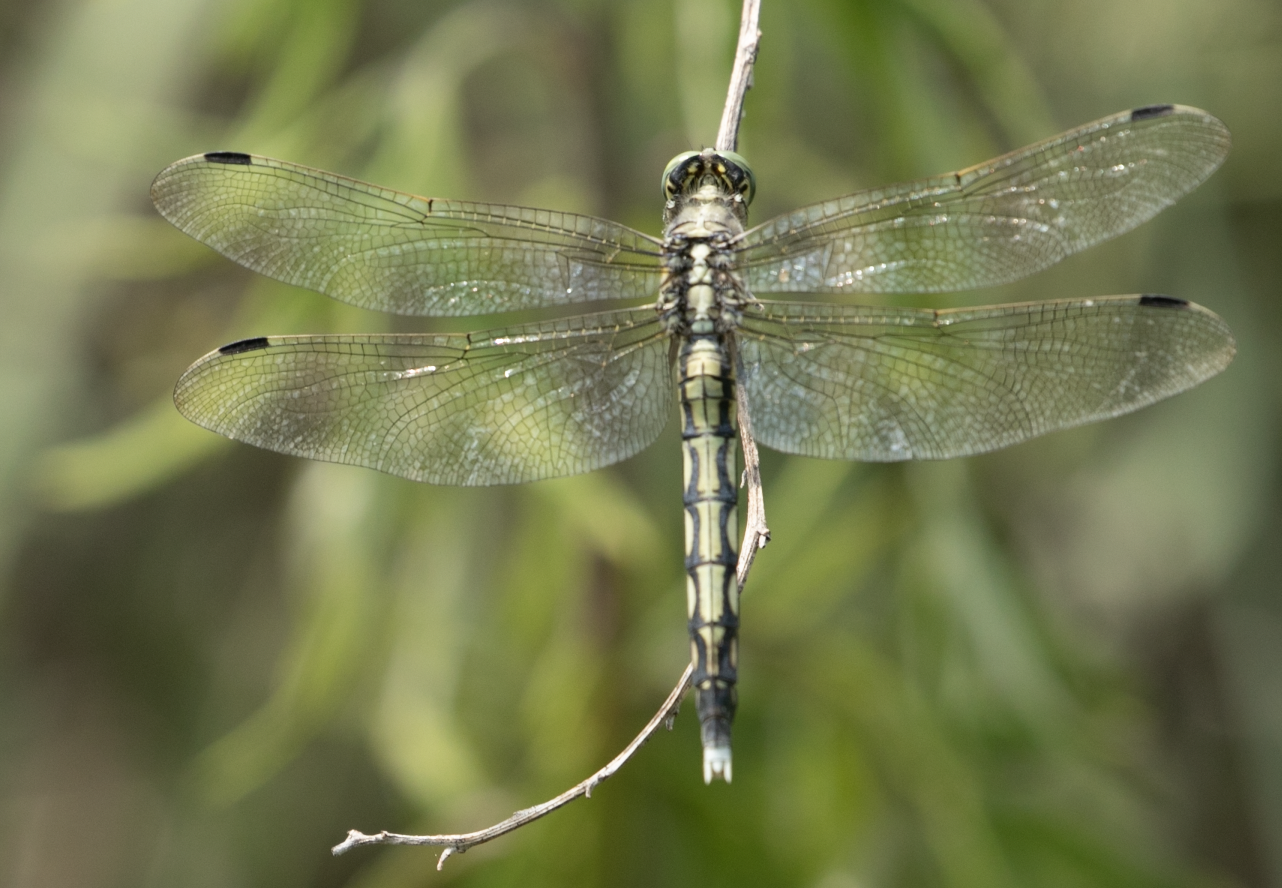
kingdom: Animalia
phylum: Arthropoda
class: Insecta
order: Odonata
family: Libellulidae
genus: Orthetrum
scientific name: Orthetrum albistylum
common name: White-tailed skimmer
